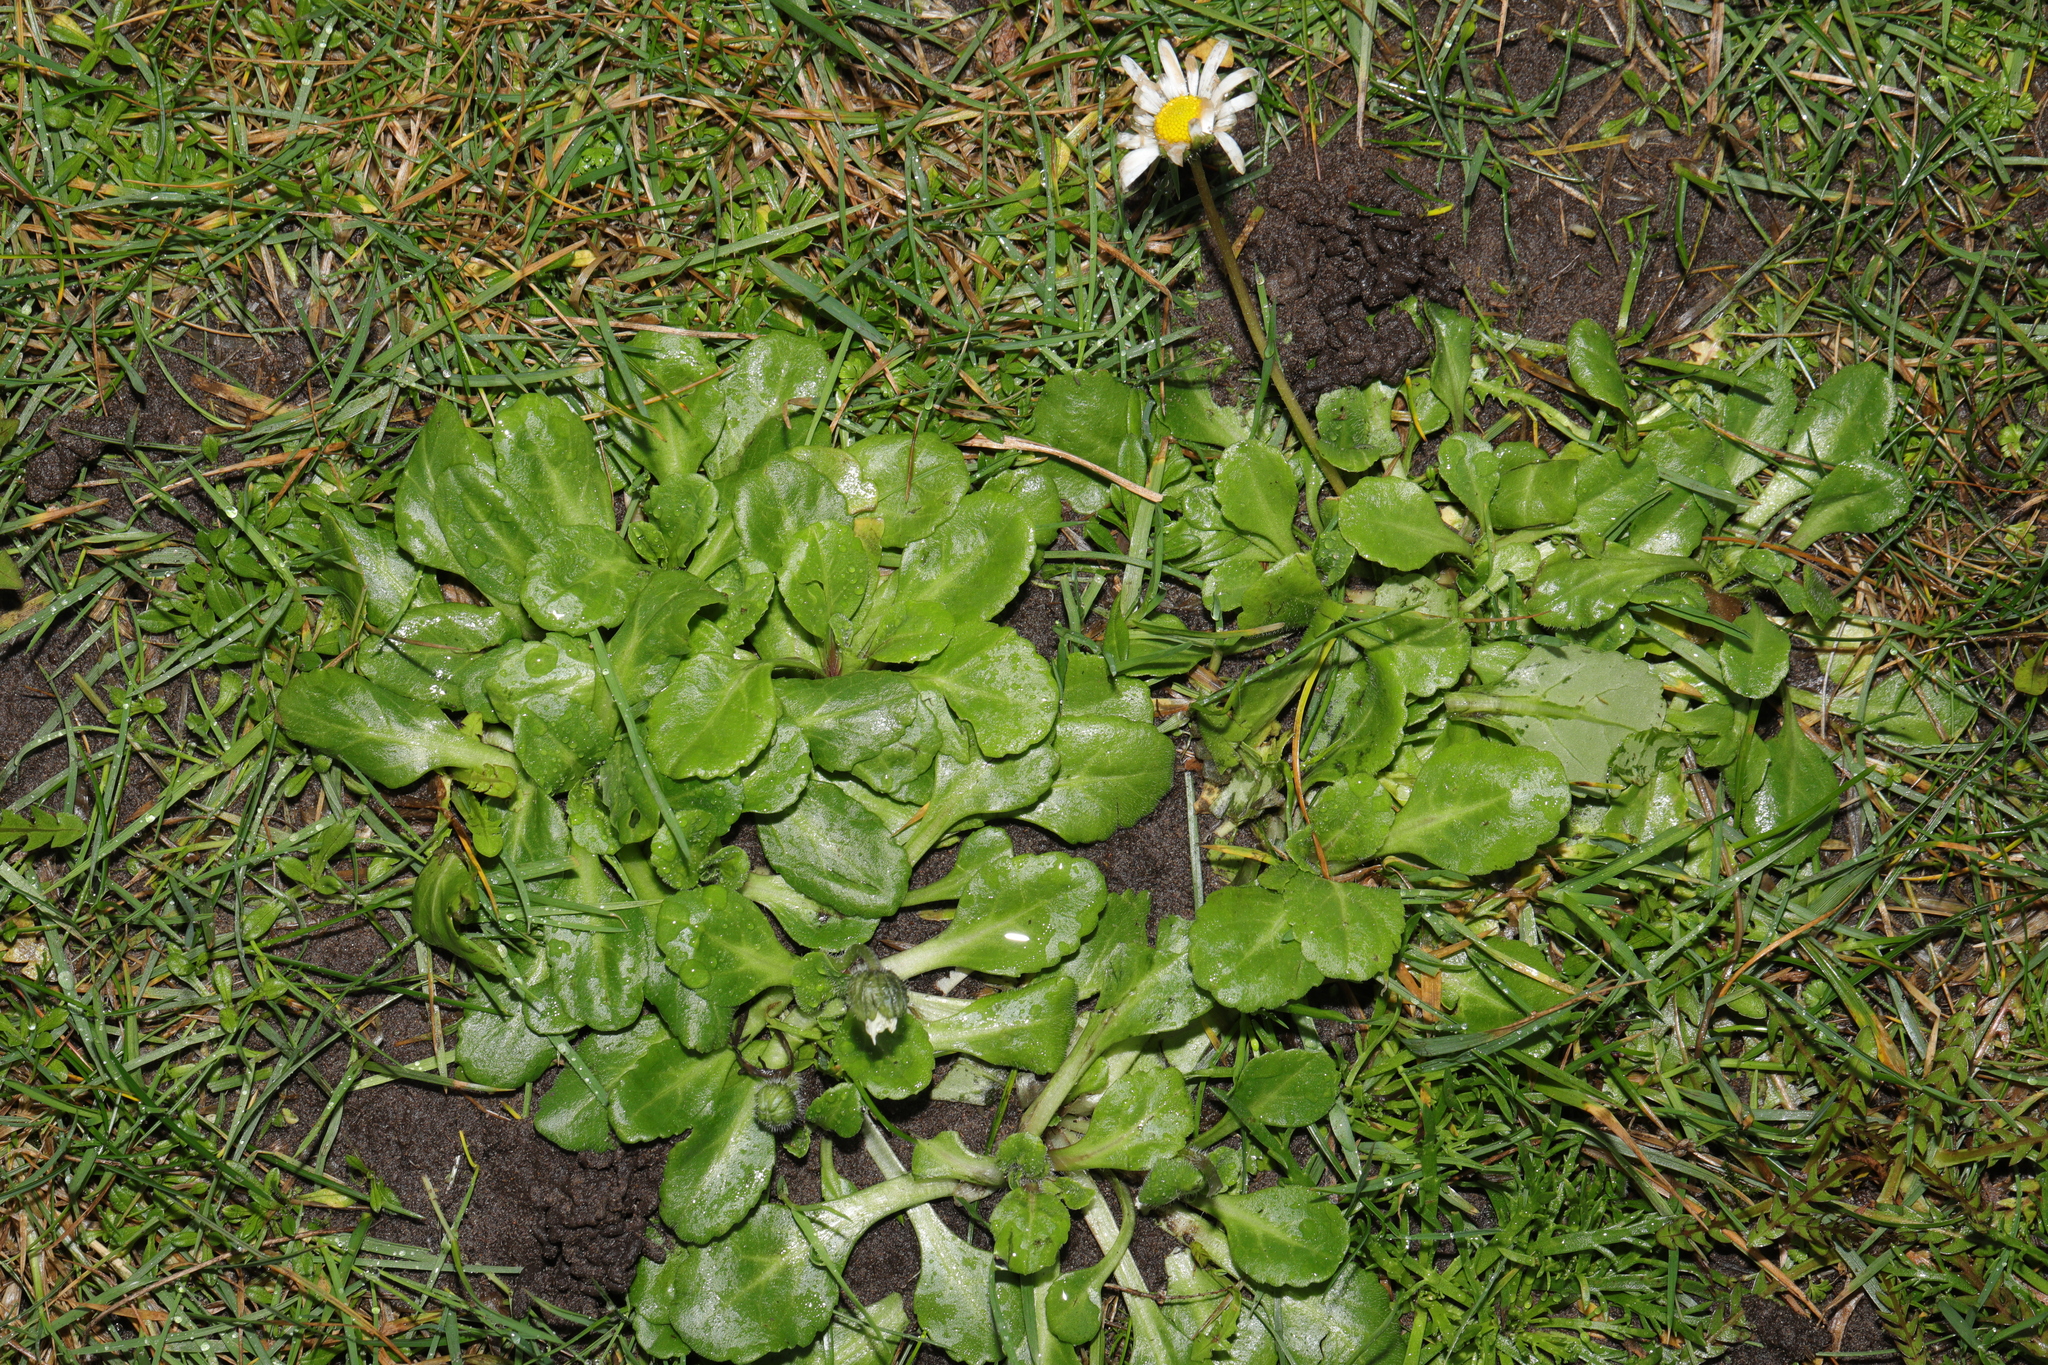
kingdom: Plantae
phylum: Tracheophyta
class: Magnoliopsida
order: Asterales
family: Asteraceae
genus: Bellis
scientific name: Bellis perennis
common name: Lawndaisy
